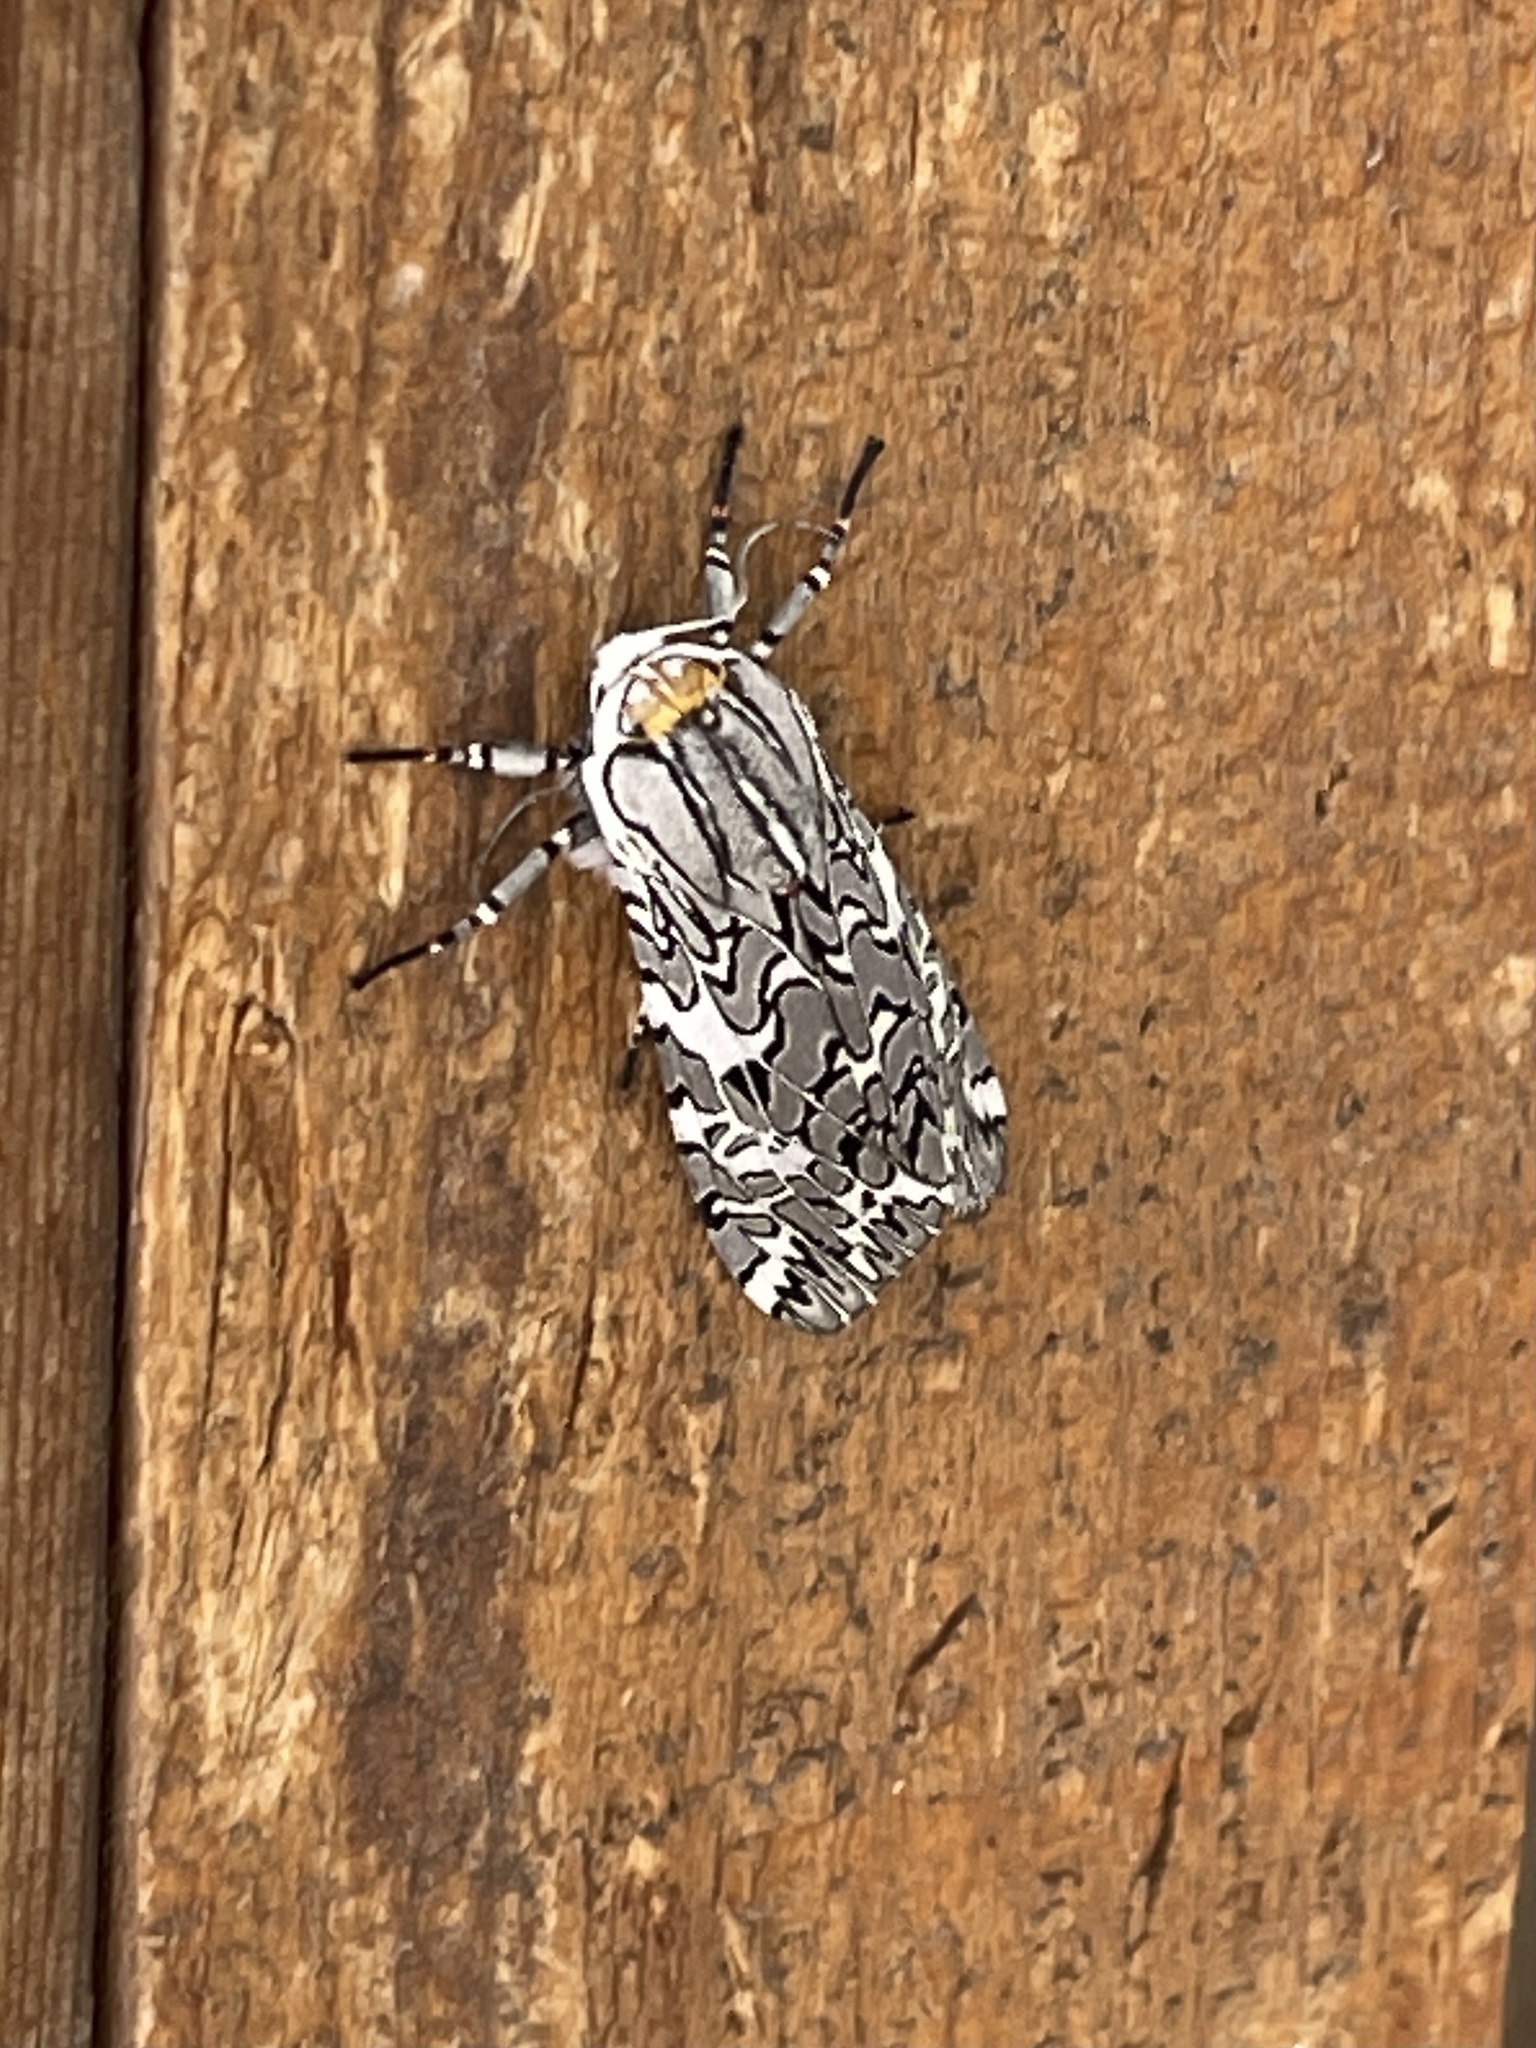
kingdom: Animalia
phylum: Arthropoda
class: Insecta
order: Lepidoptera
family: Erebidae
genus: Arachnis
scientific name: Arachnis picta
